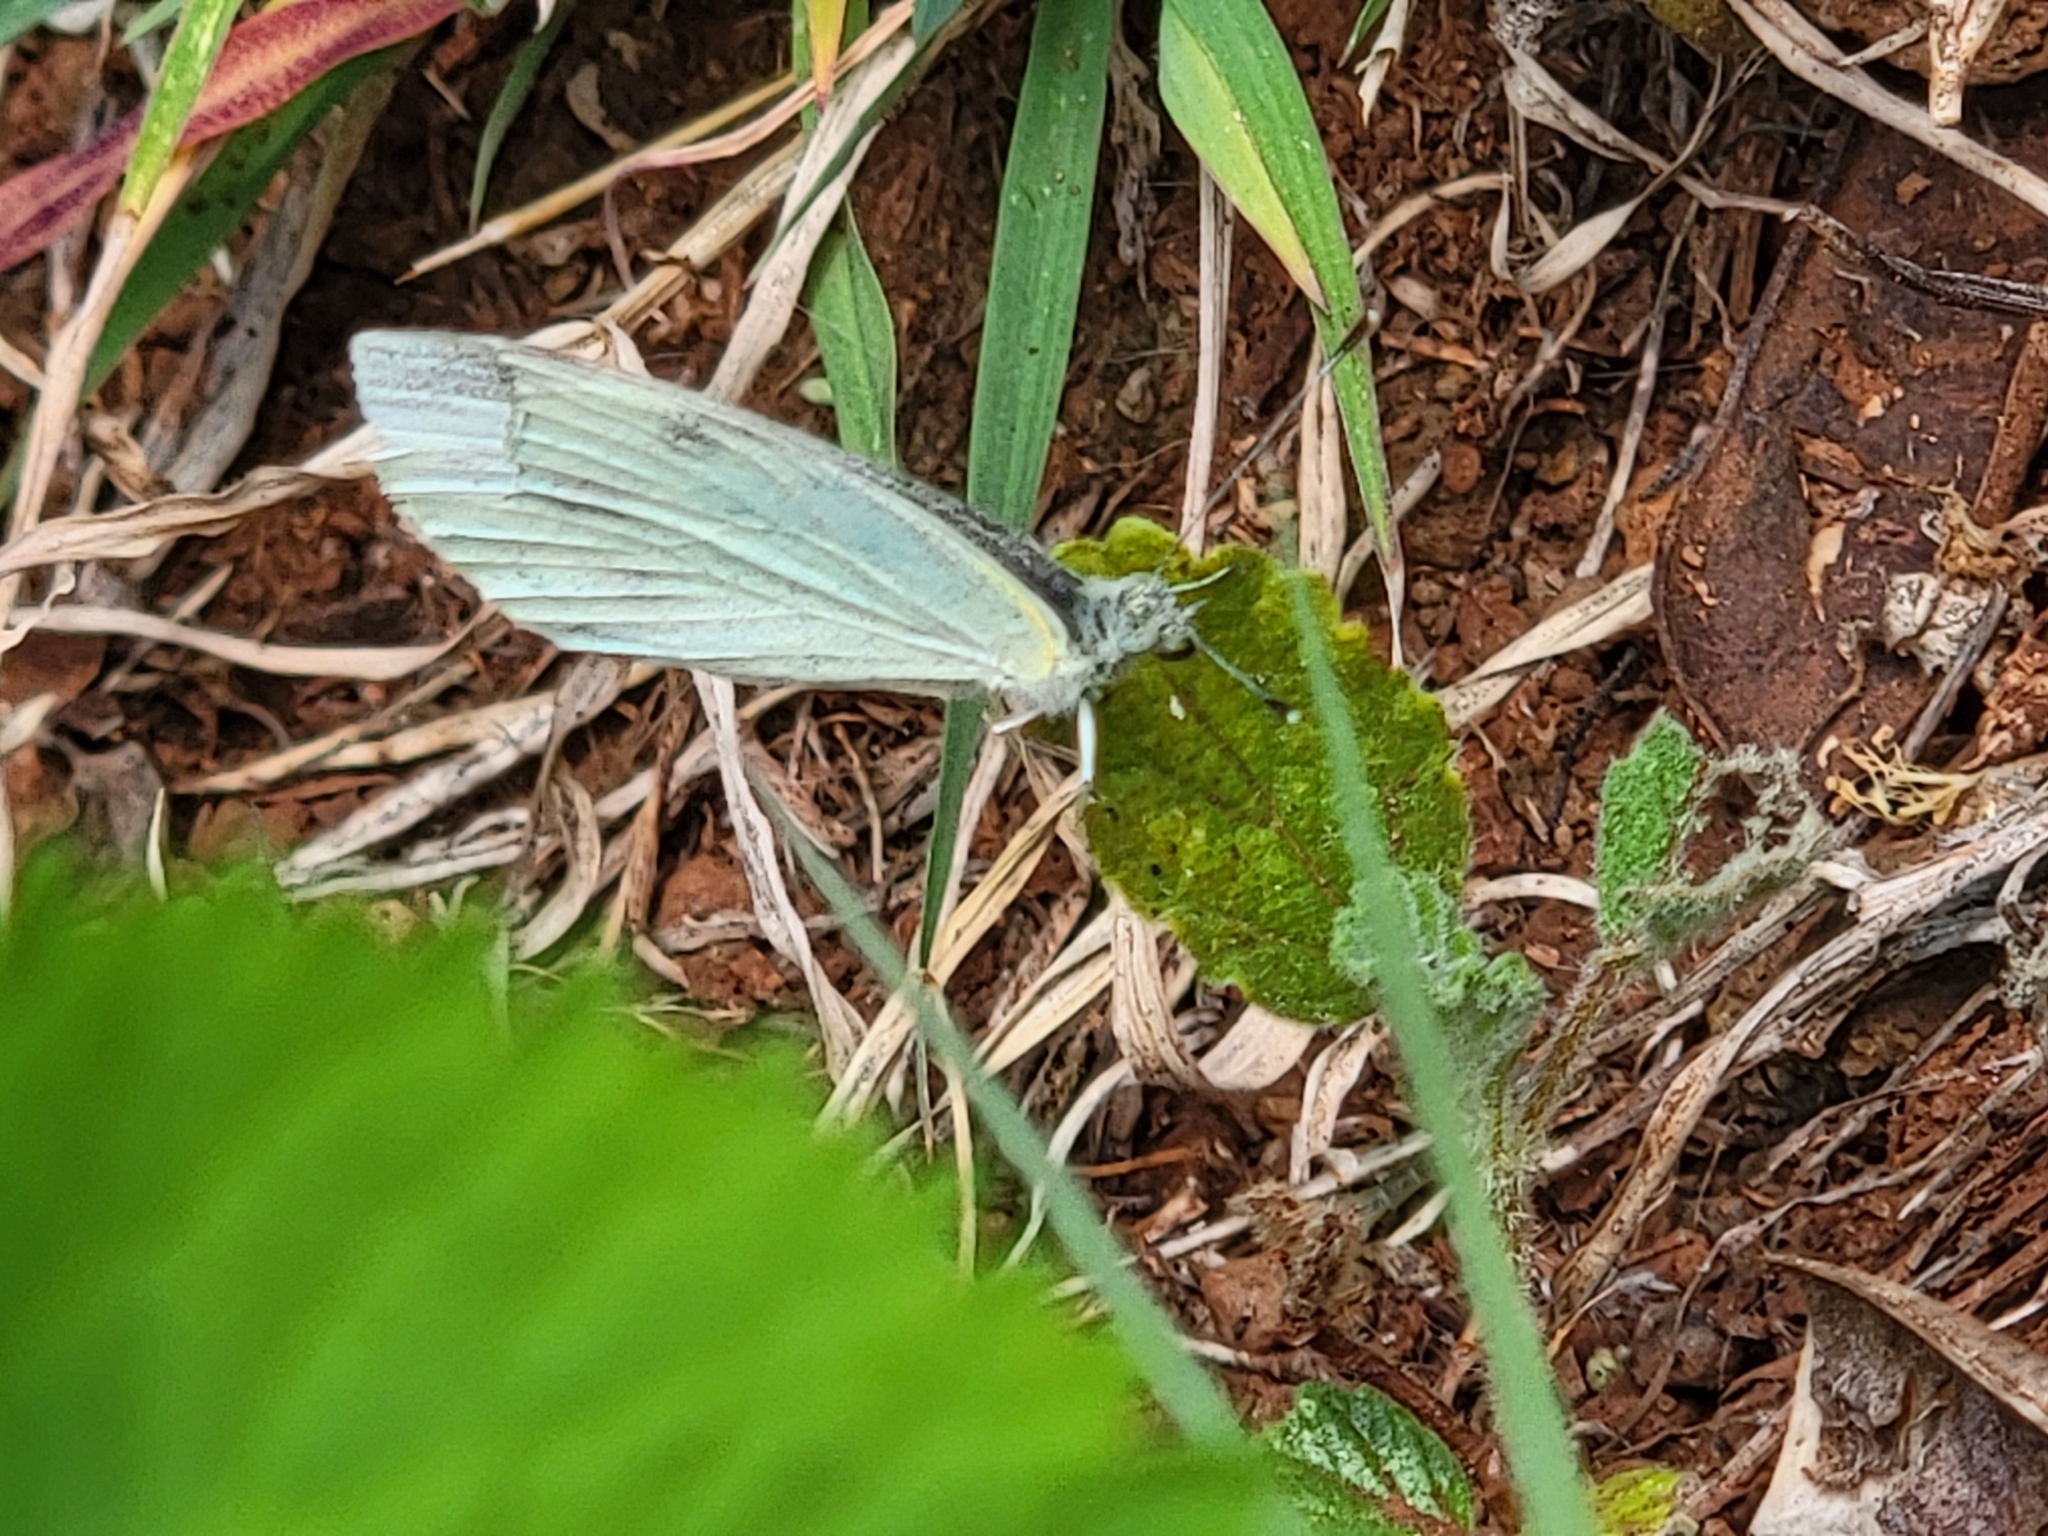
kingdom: Animalia
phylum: Arthropoda
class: Insecta
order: Lepidoptera
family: Pieridae
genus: Pieris
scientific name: Pieris rapae
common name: Small white
